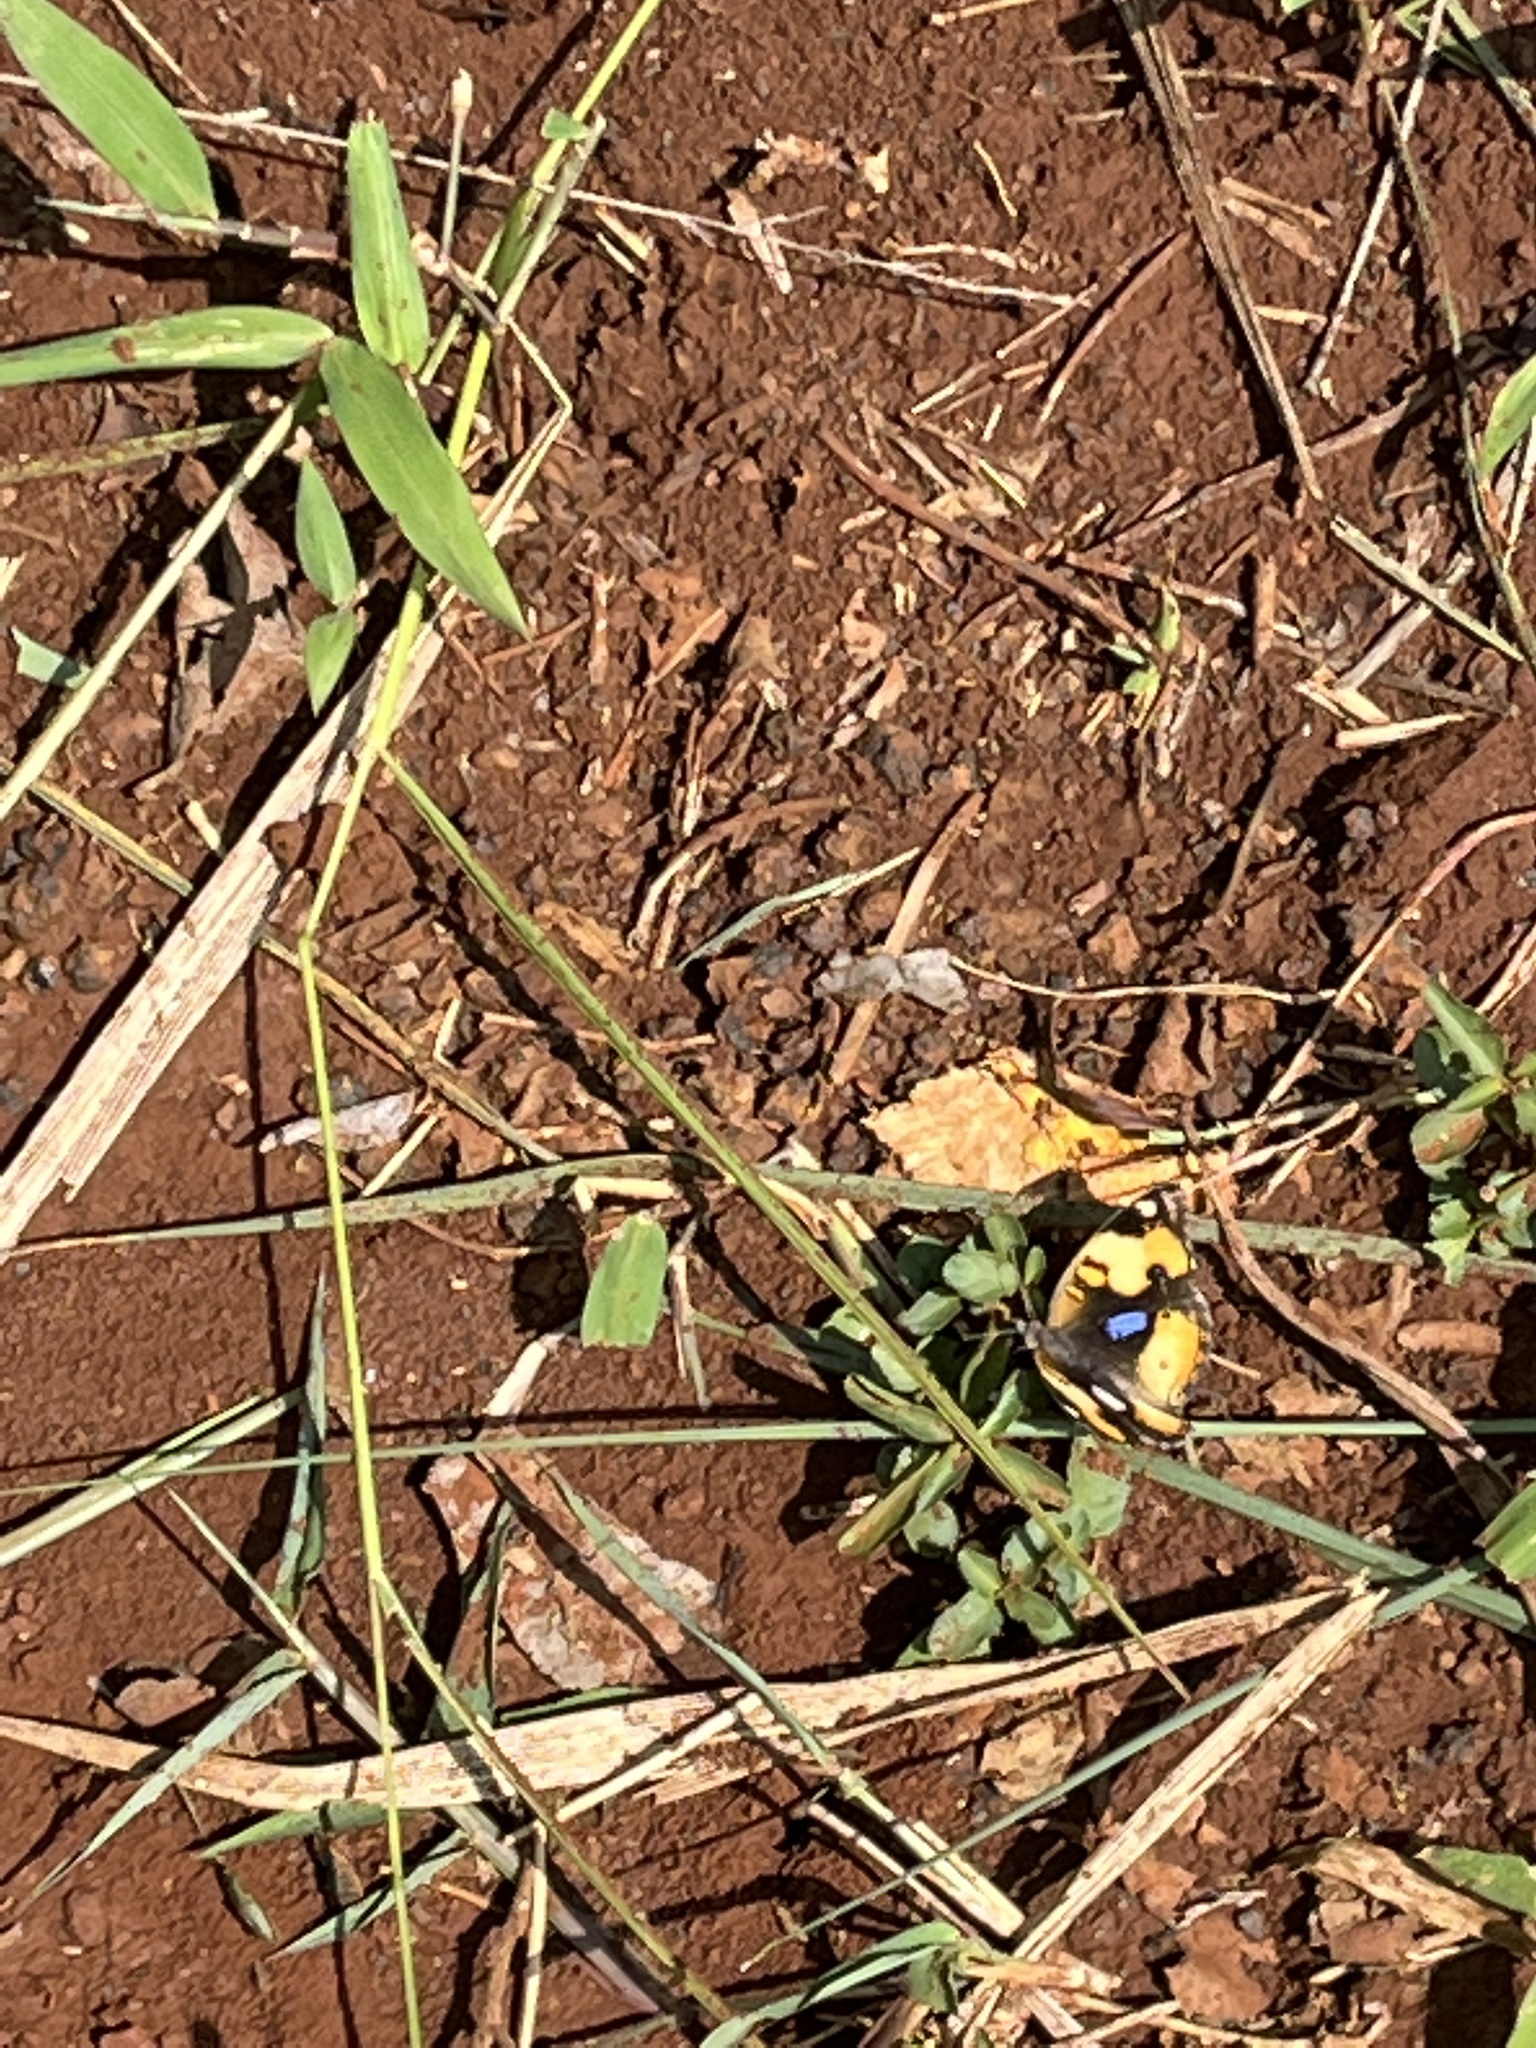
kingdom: Animalia
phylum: Arthropoda
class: Insecta
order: Lepidoptera
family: Nymphalidae
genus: Junonia
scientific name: Junonia hierta
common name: Yellow pansy
